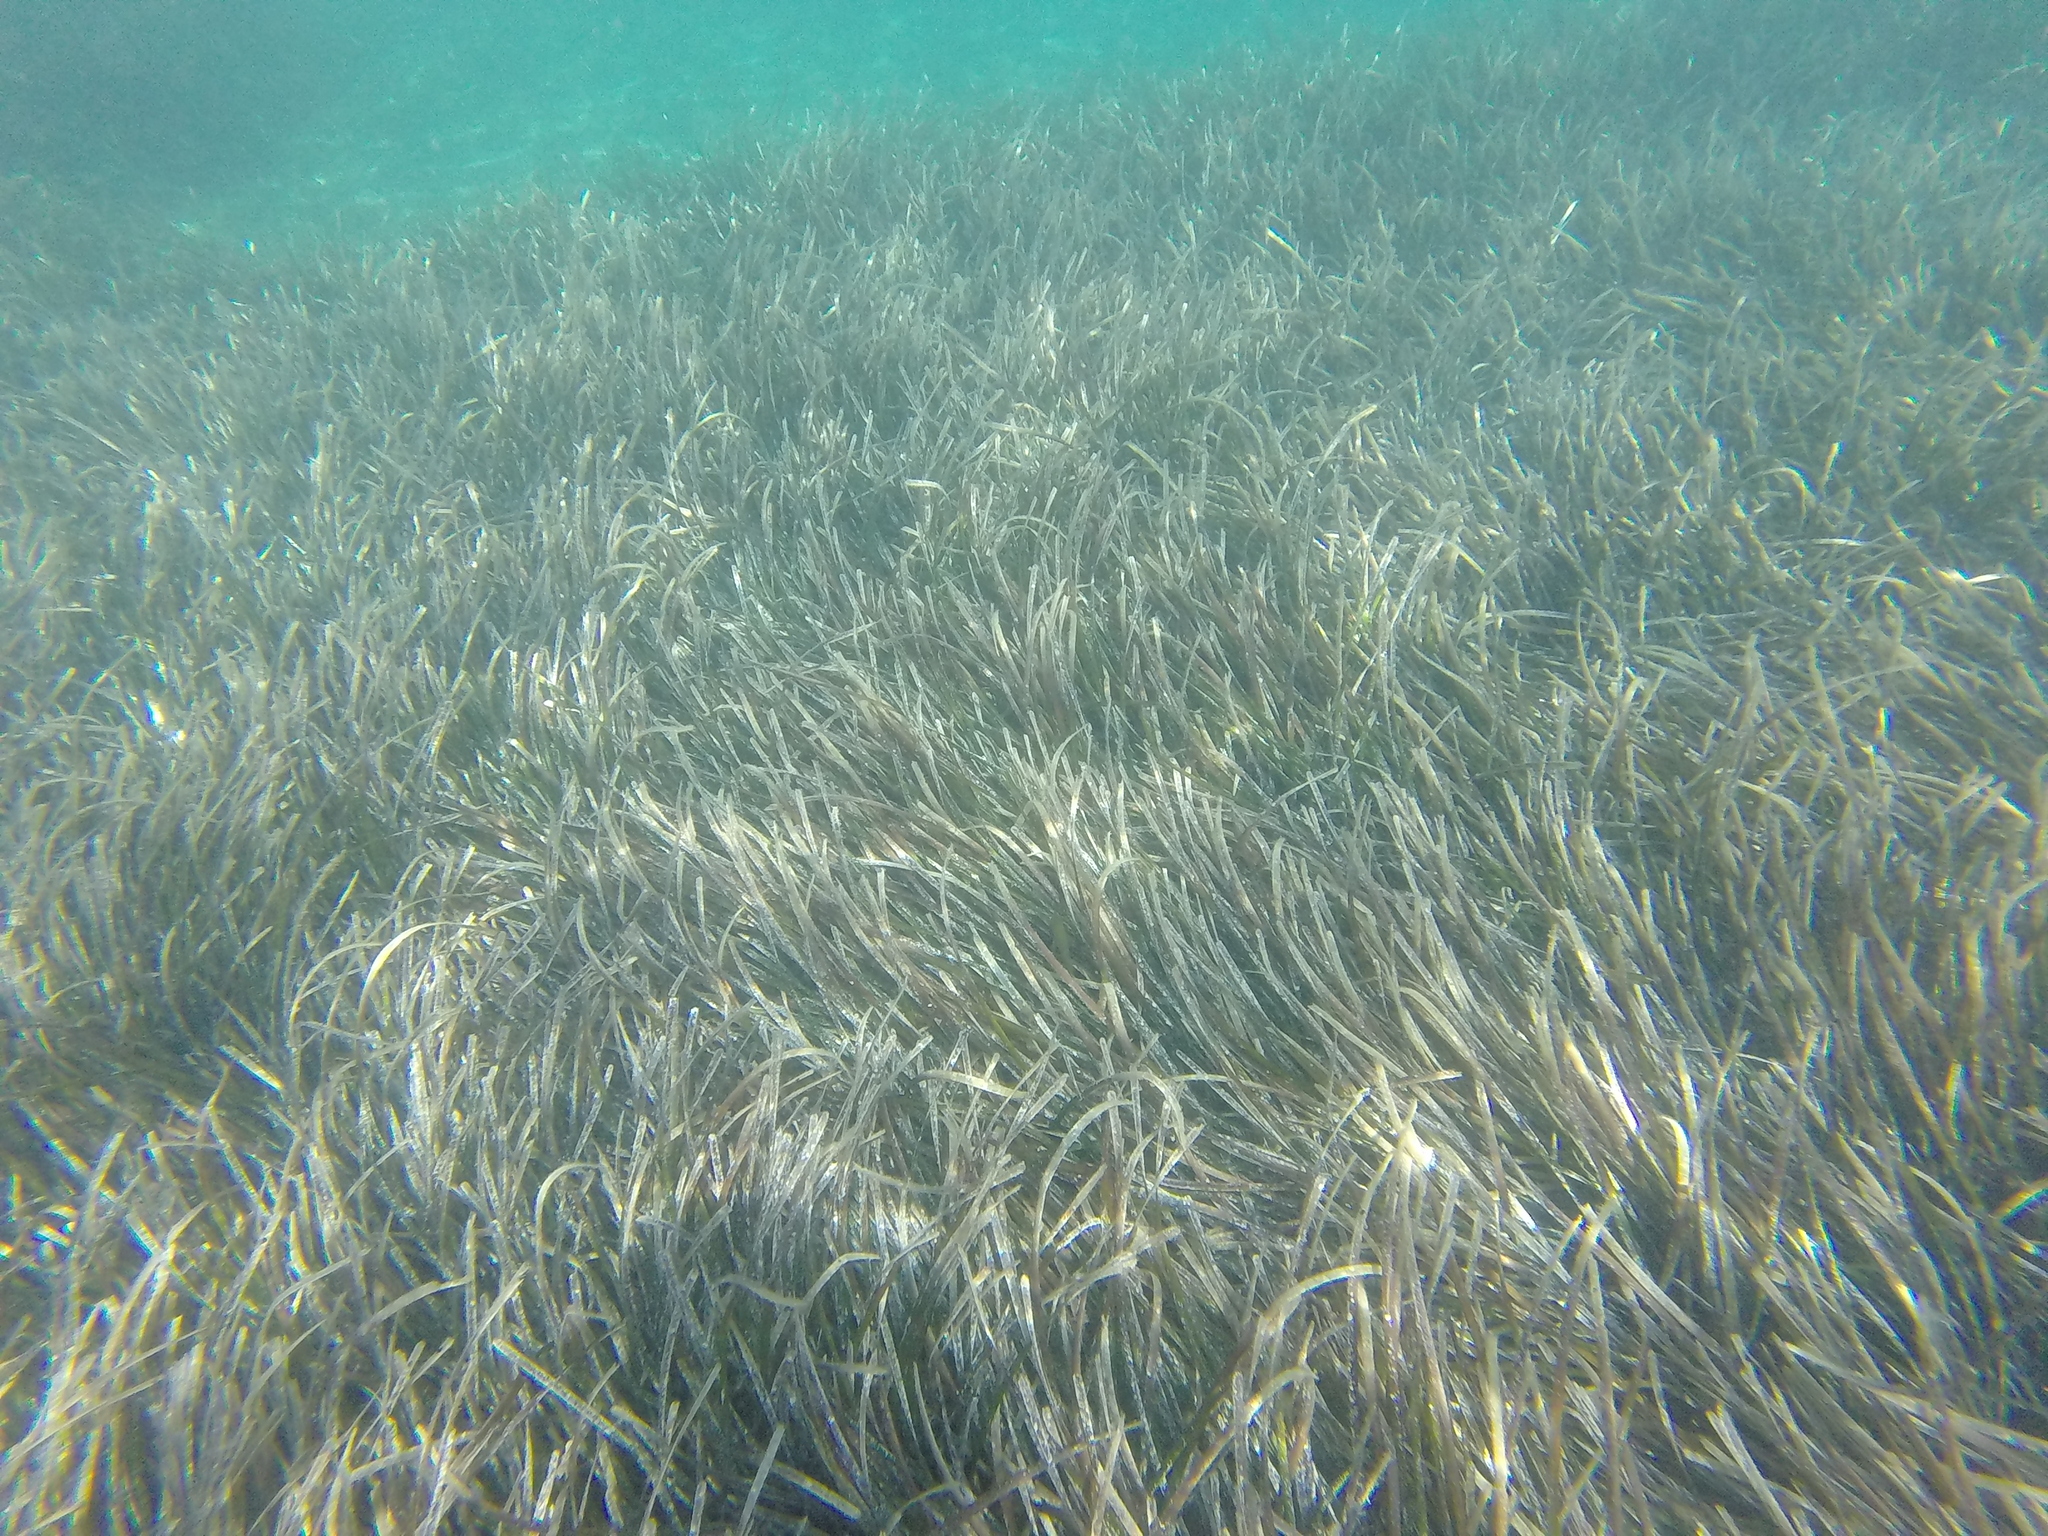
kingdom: Plantae
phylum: Tracheophyta
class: Liliopsida
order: Alismatales
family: Posidoniaceae
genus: Posidonia
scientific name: Posidonia oceanica
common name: Mediterranean tapeweed
